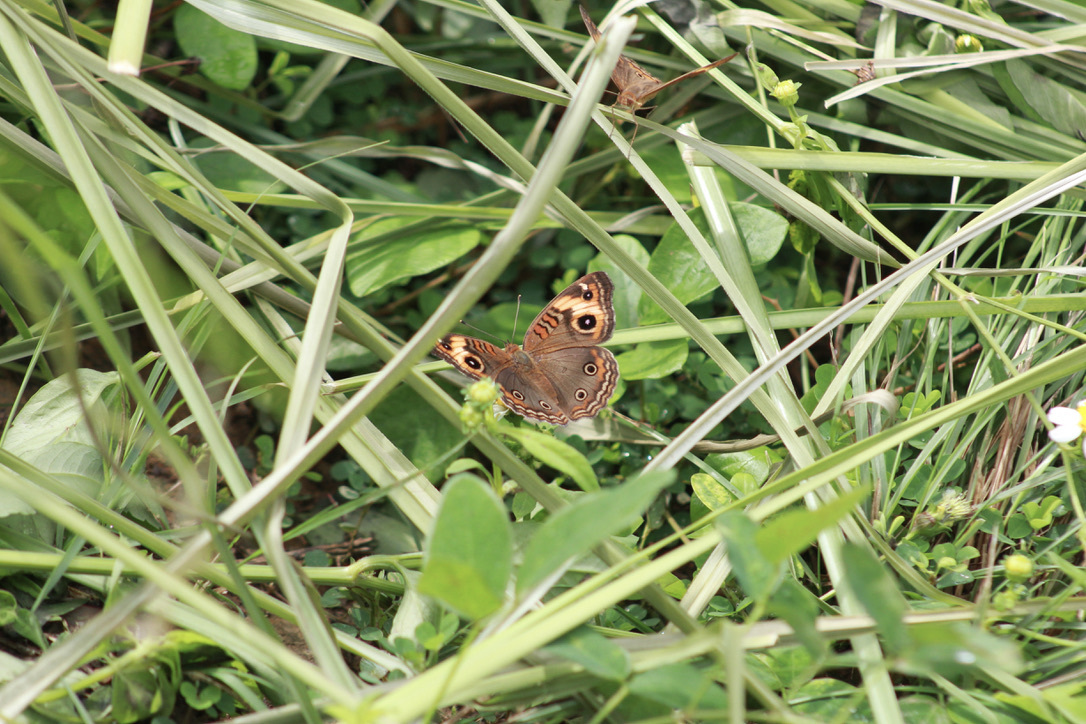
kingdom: Animalia
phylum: Arthropoda
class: Insecta
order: Lepidoptera
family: Nymphalidae
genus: Junonia
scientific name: Junonia lavinia
